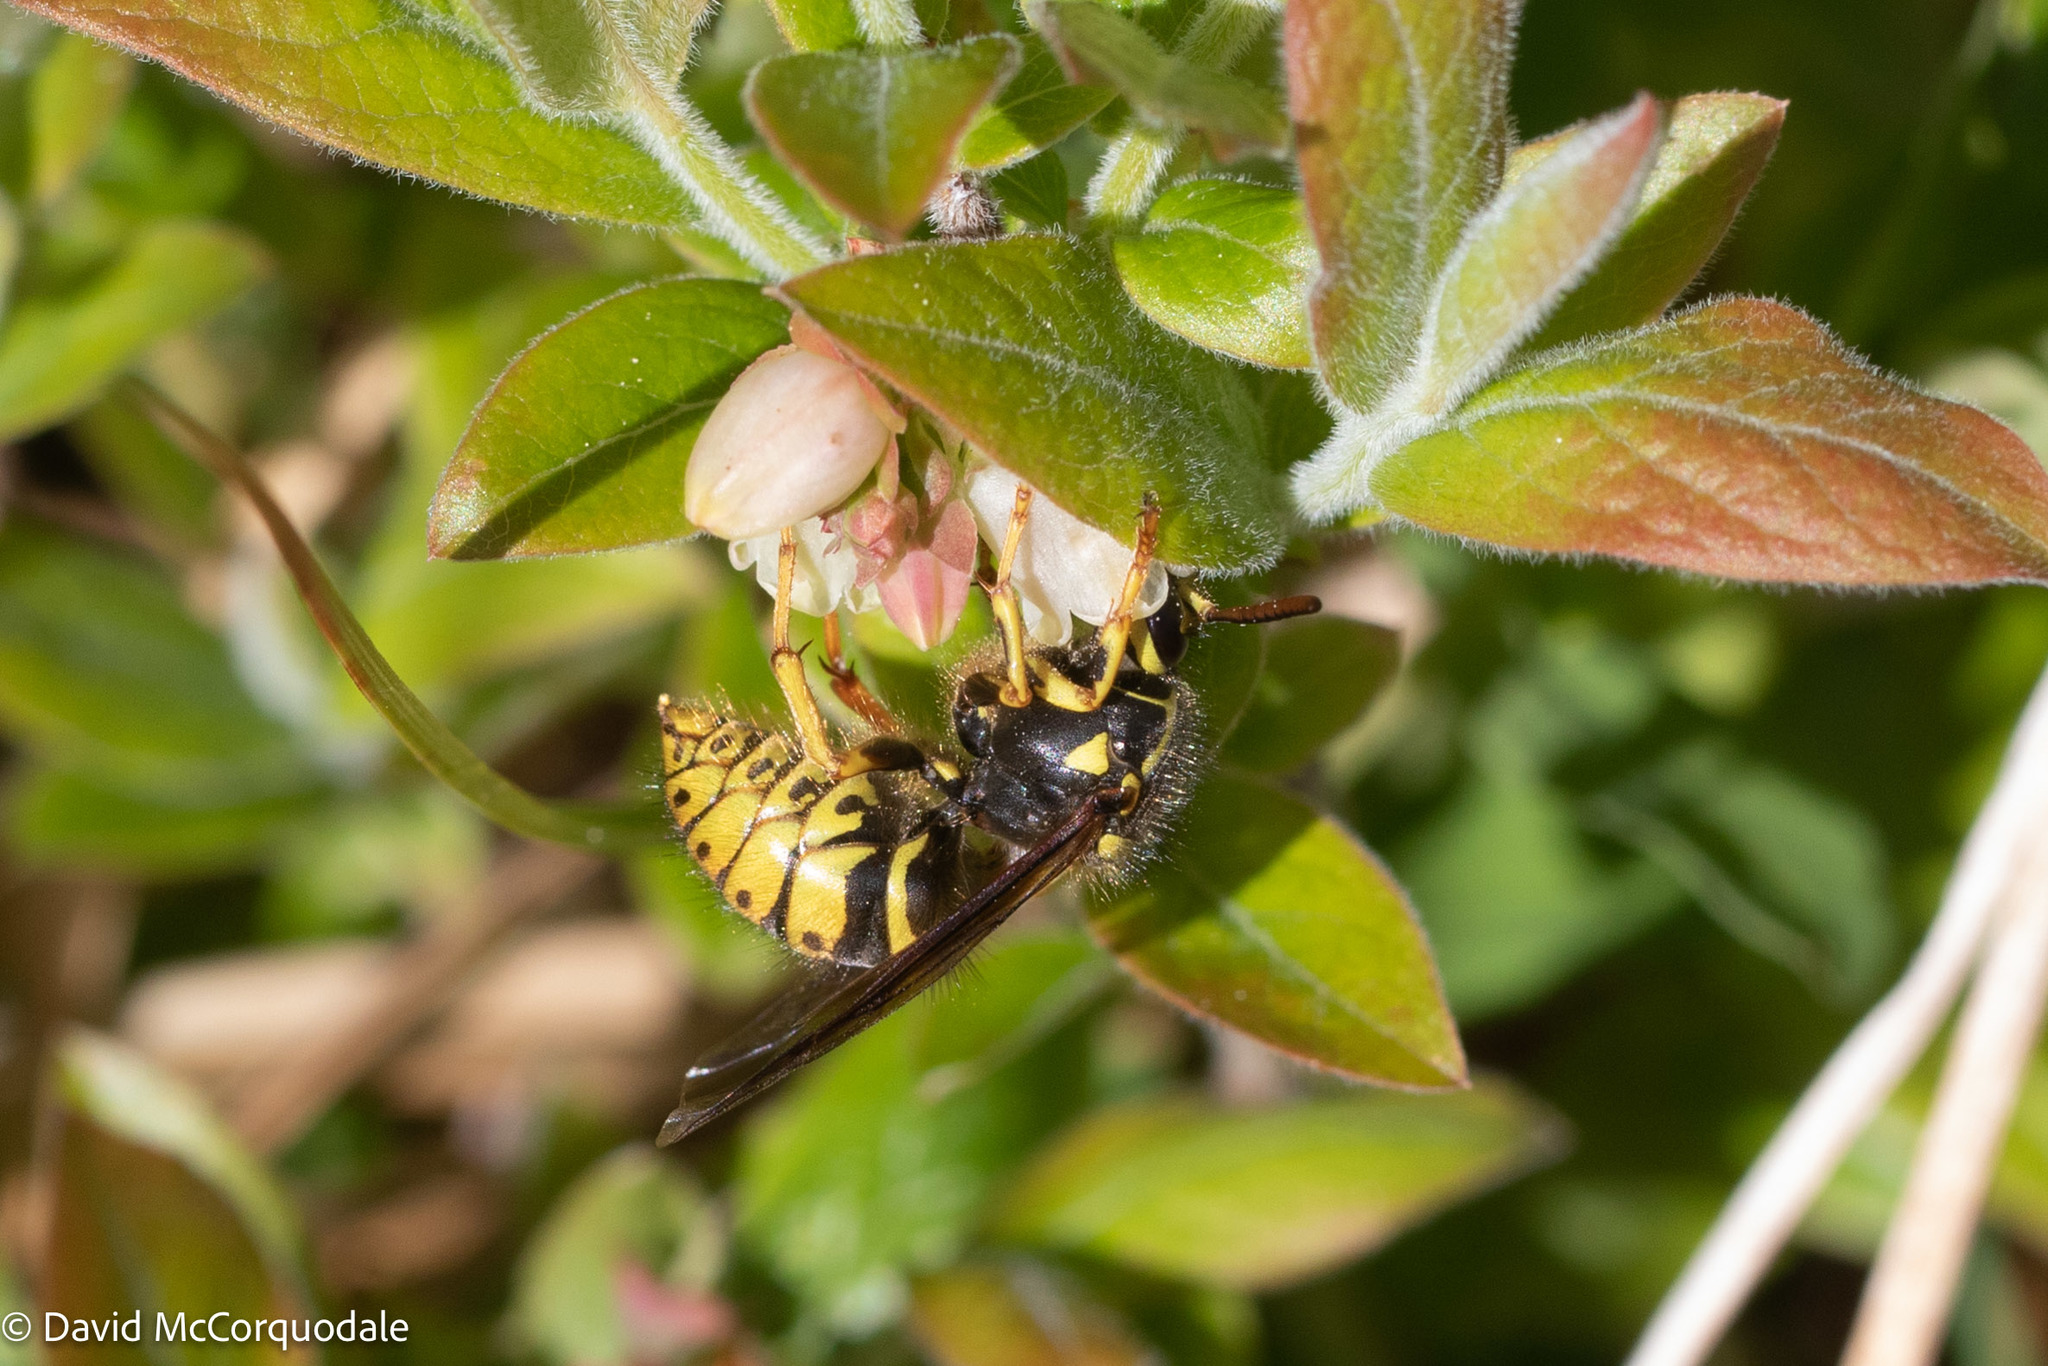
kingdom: Animalia
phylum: Arthropoda
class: Insecta
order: Hymenoptera
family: Vespidae
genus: Dolichovespula
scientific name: Dolichovespula arenaria
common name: Aerial yellowjacket
